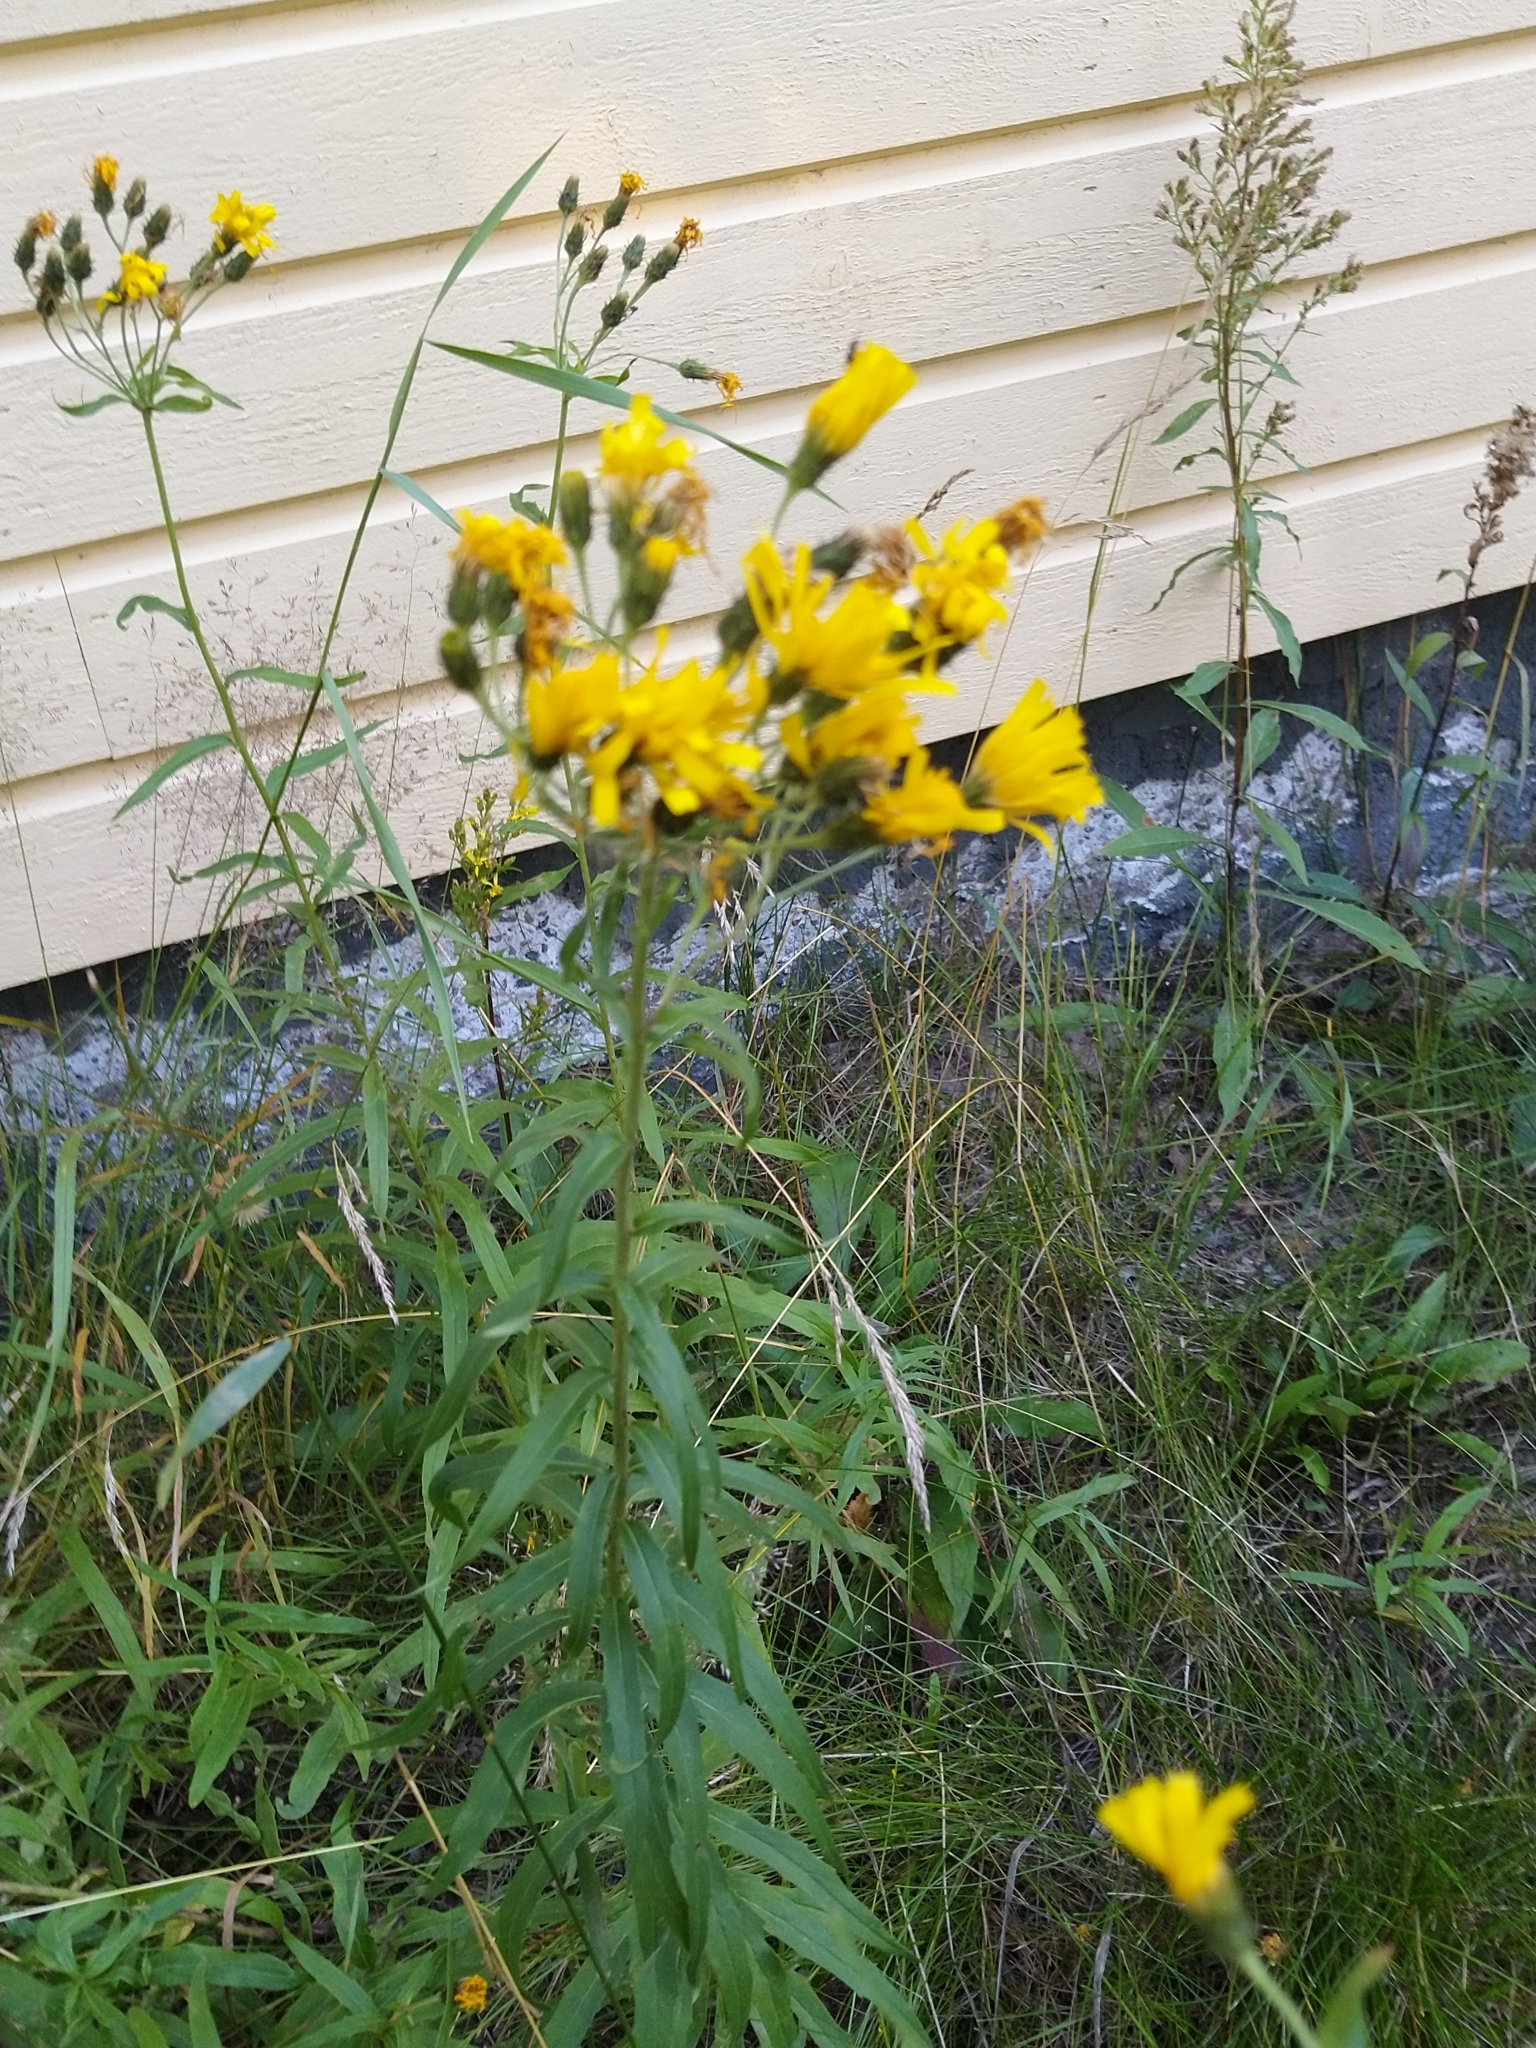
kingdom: Plantae
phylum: Tracheophyta
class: Magnoliopsida
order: Asterales
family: Asteraceae
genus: Hieracium
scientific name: Hieracium umbellatum
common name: Northern hawkweed
